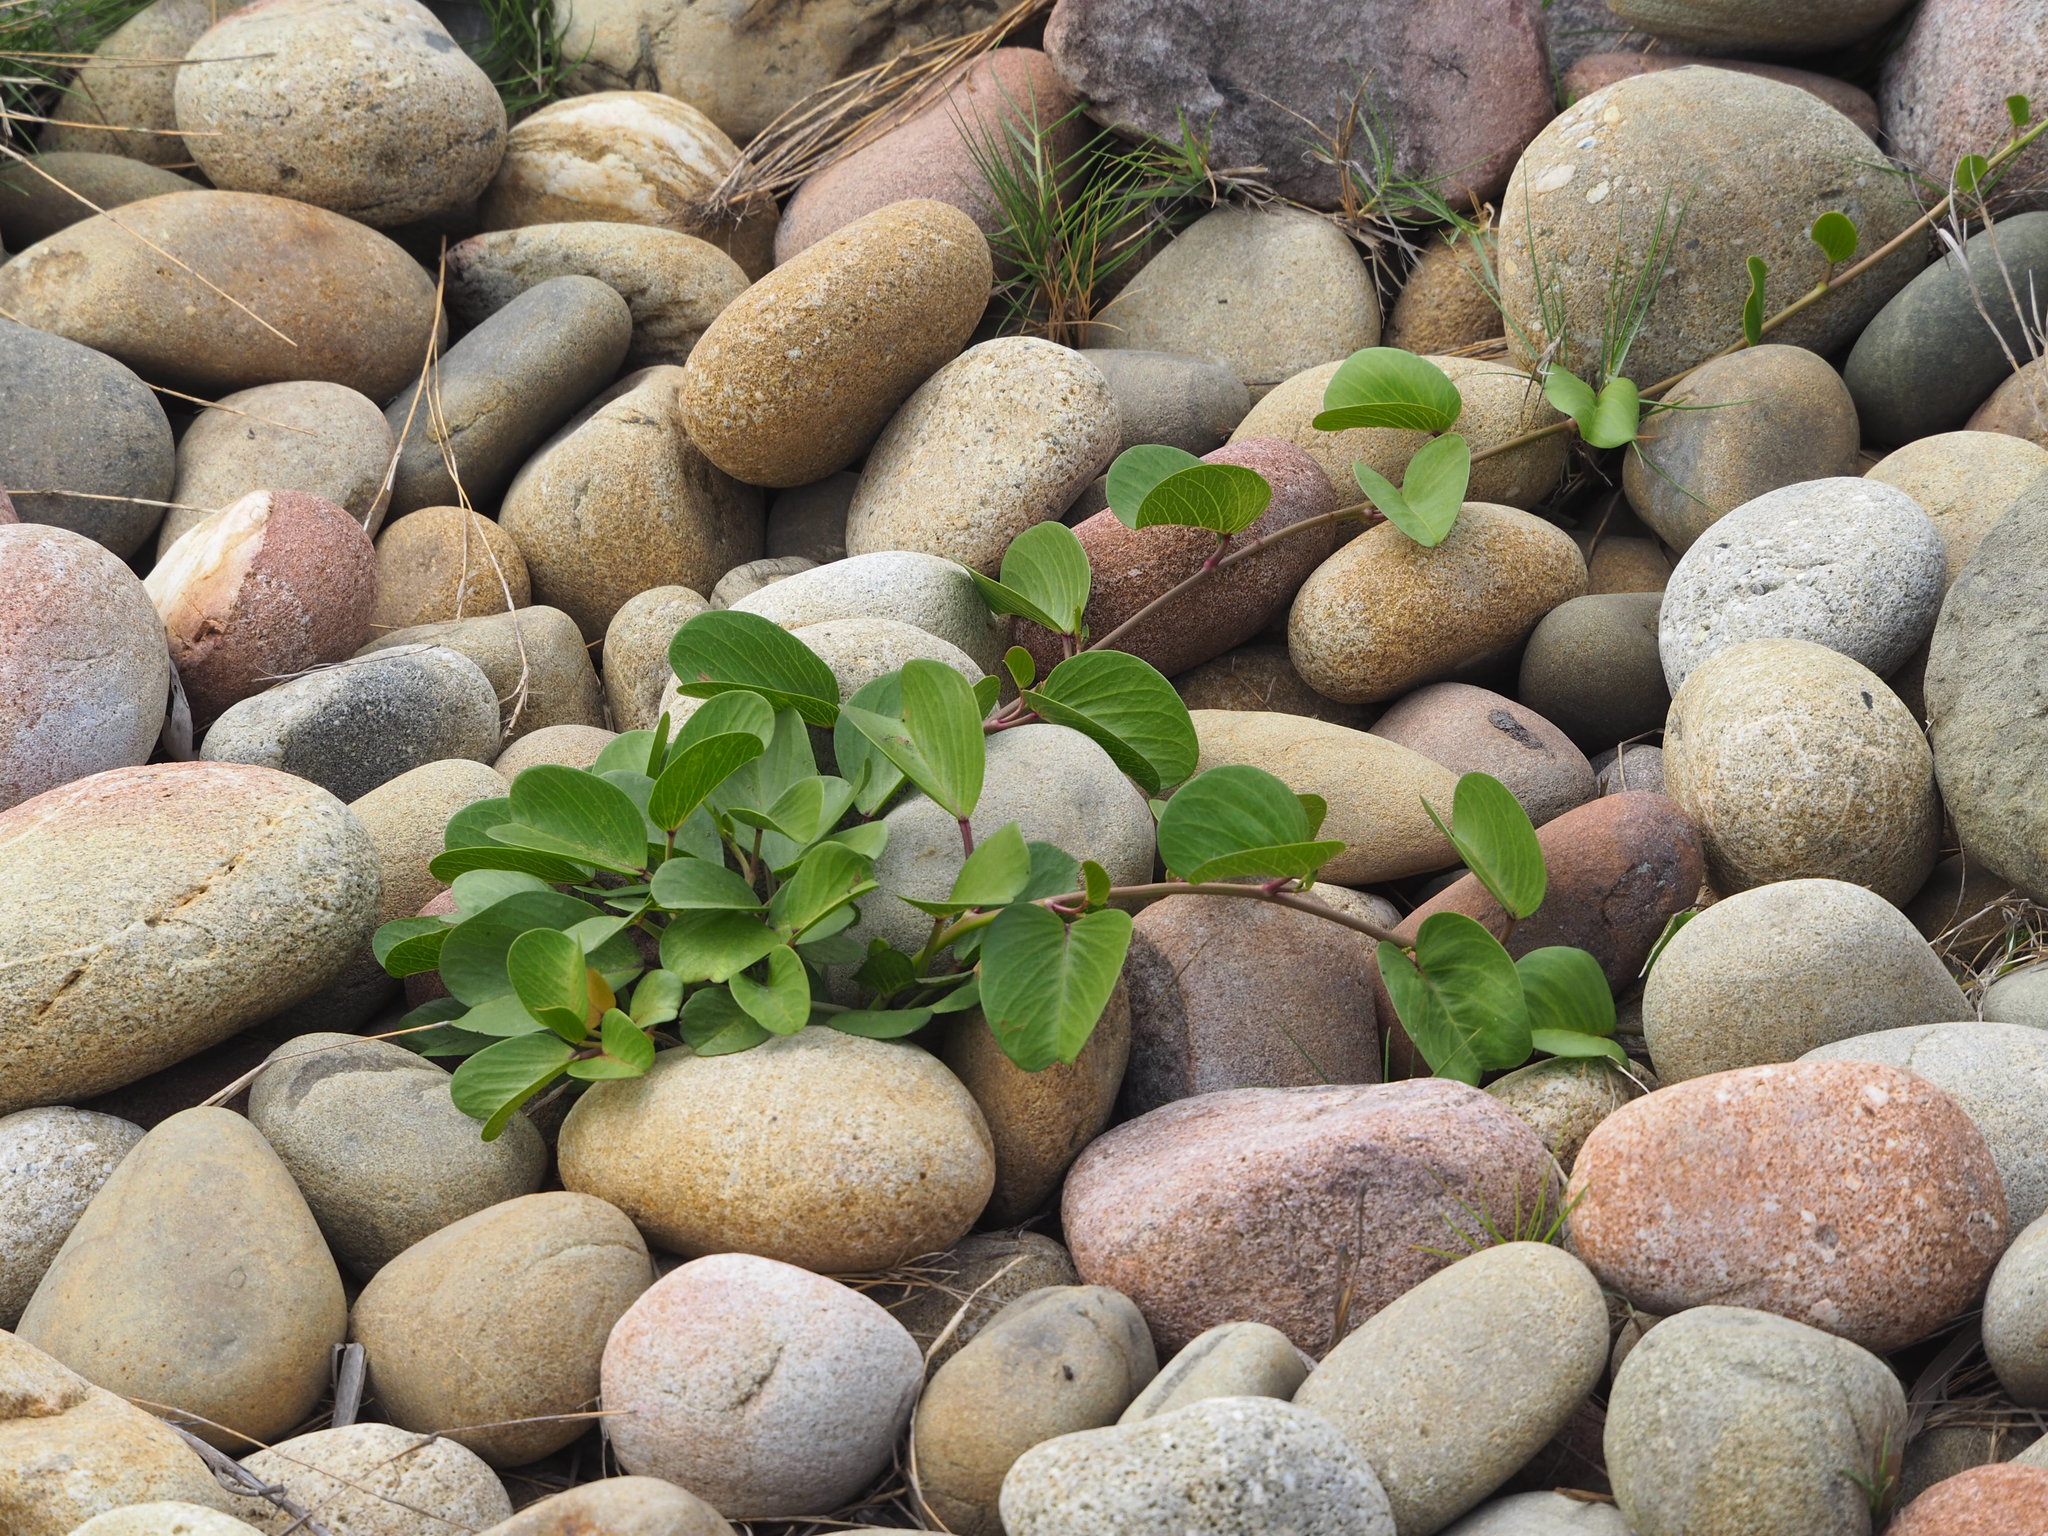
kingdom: Plantae
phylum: Tracheophyta
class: Magnoliopsida
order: Solanales
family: Convolvulaceae
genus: Ipomoea
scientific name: Ipomoea pes-caprae
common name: Beach morning glory
